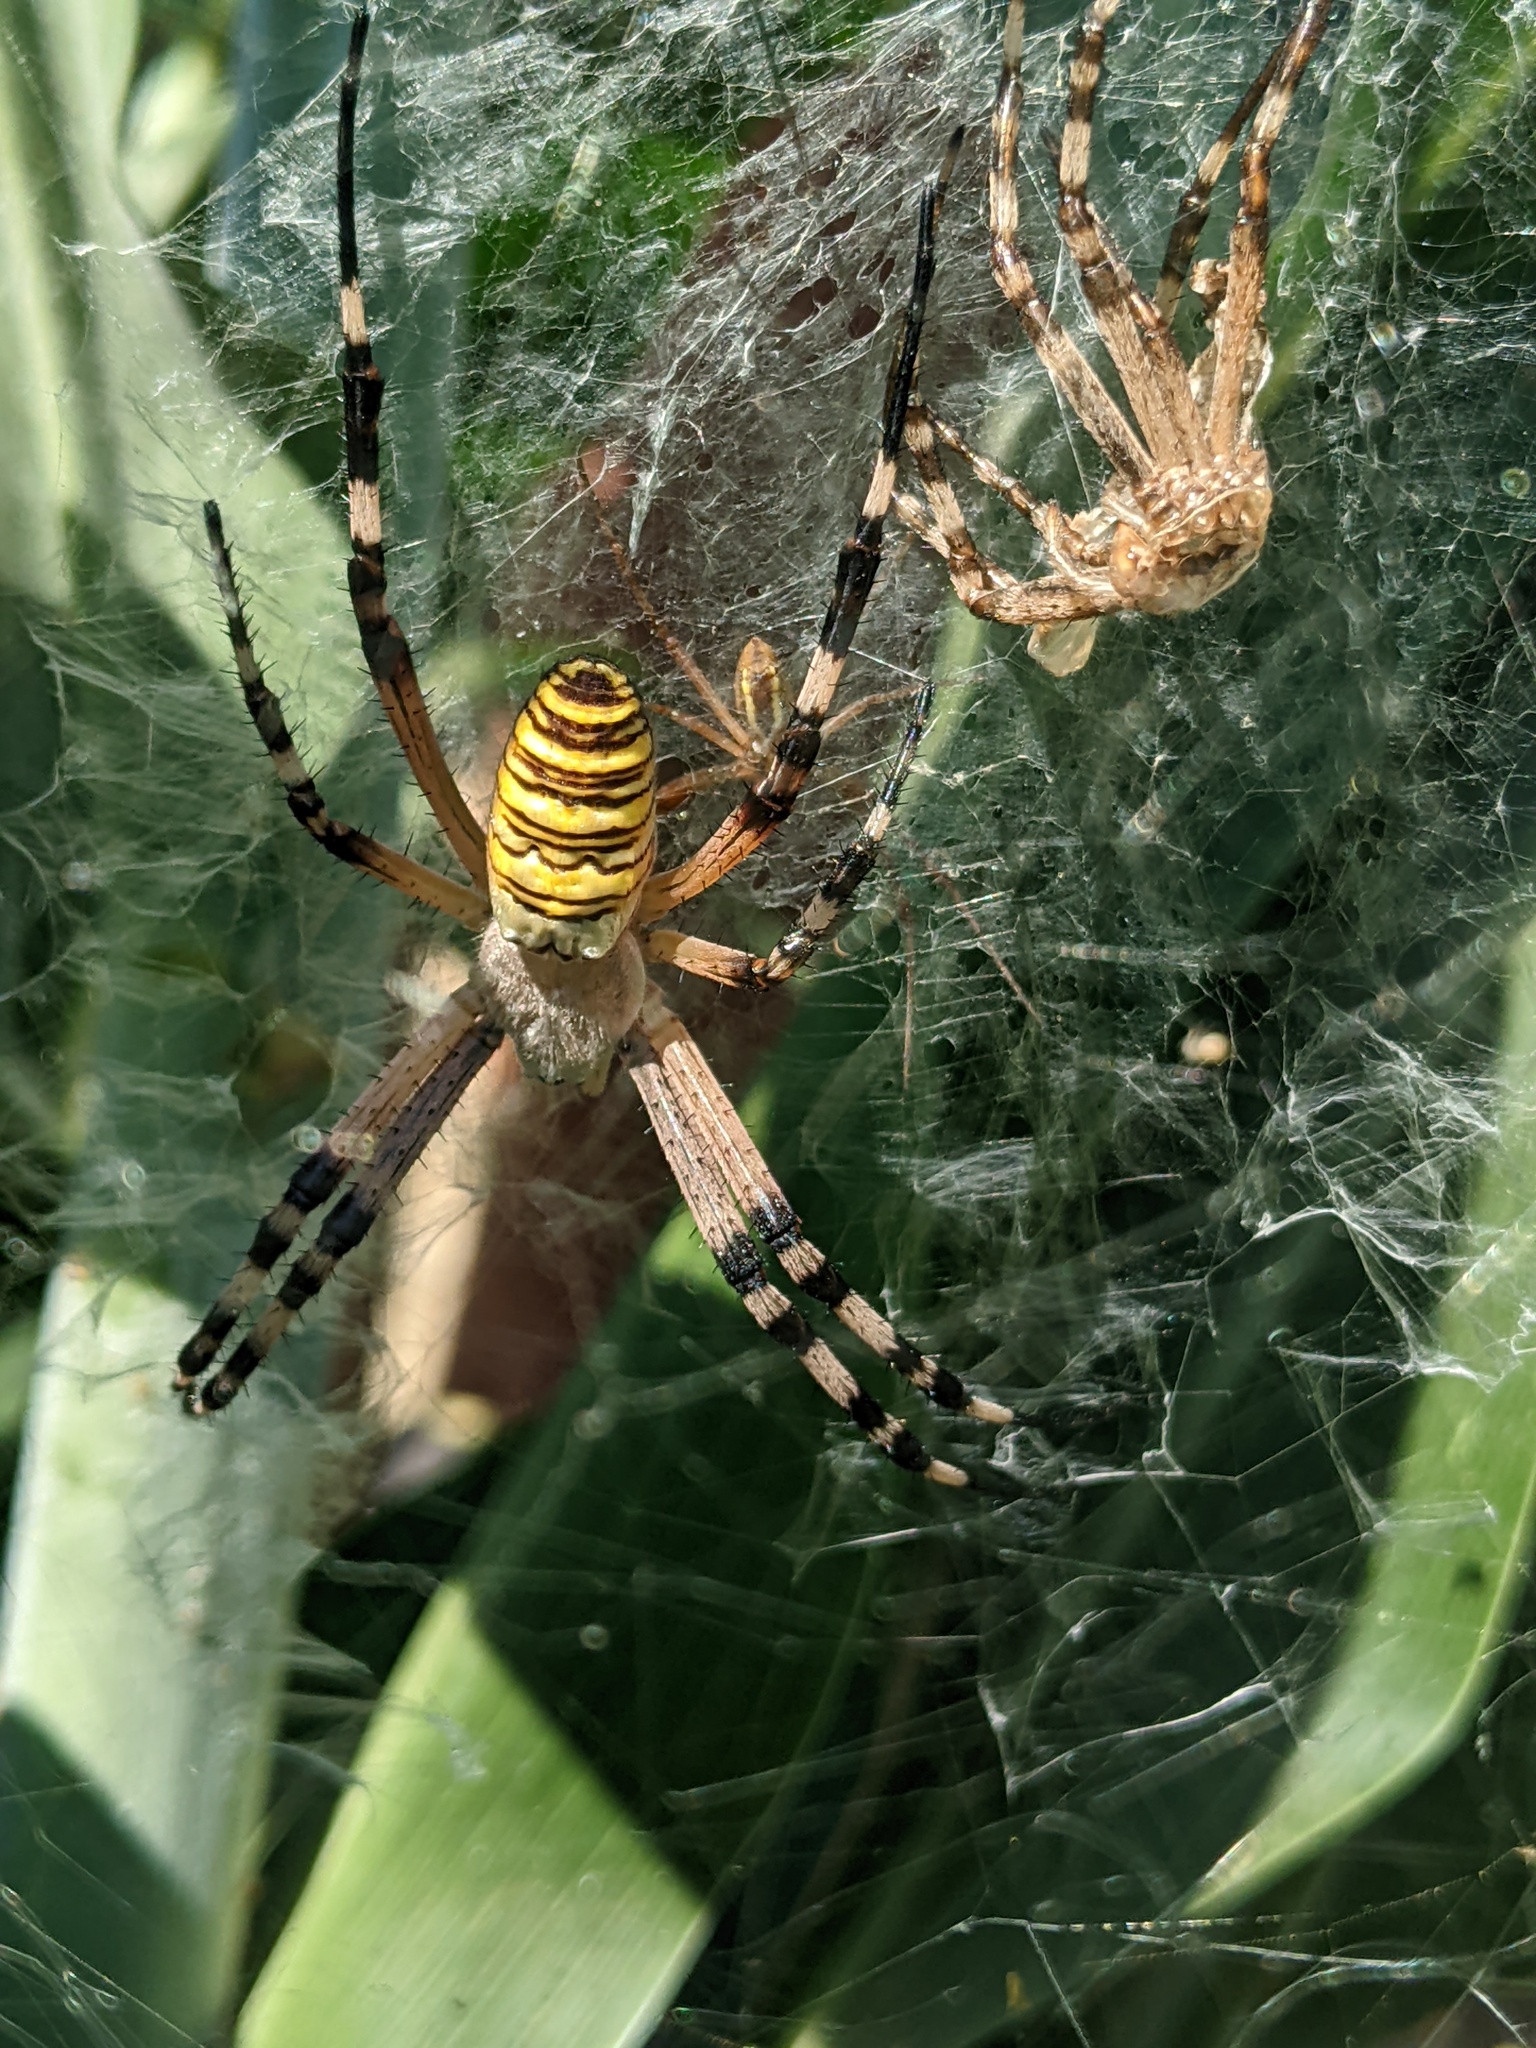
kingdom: Animalia
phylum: Arthropoda
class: Arachnida
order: Araneae
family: Araneidae
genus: Argiope
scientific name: Argiope bruennichi
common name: Wasp spider
